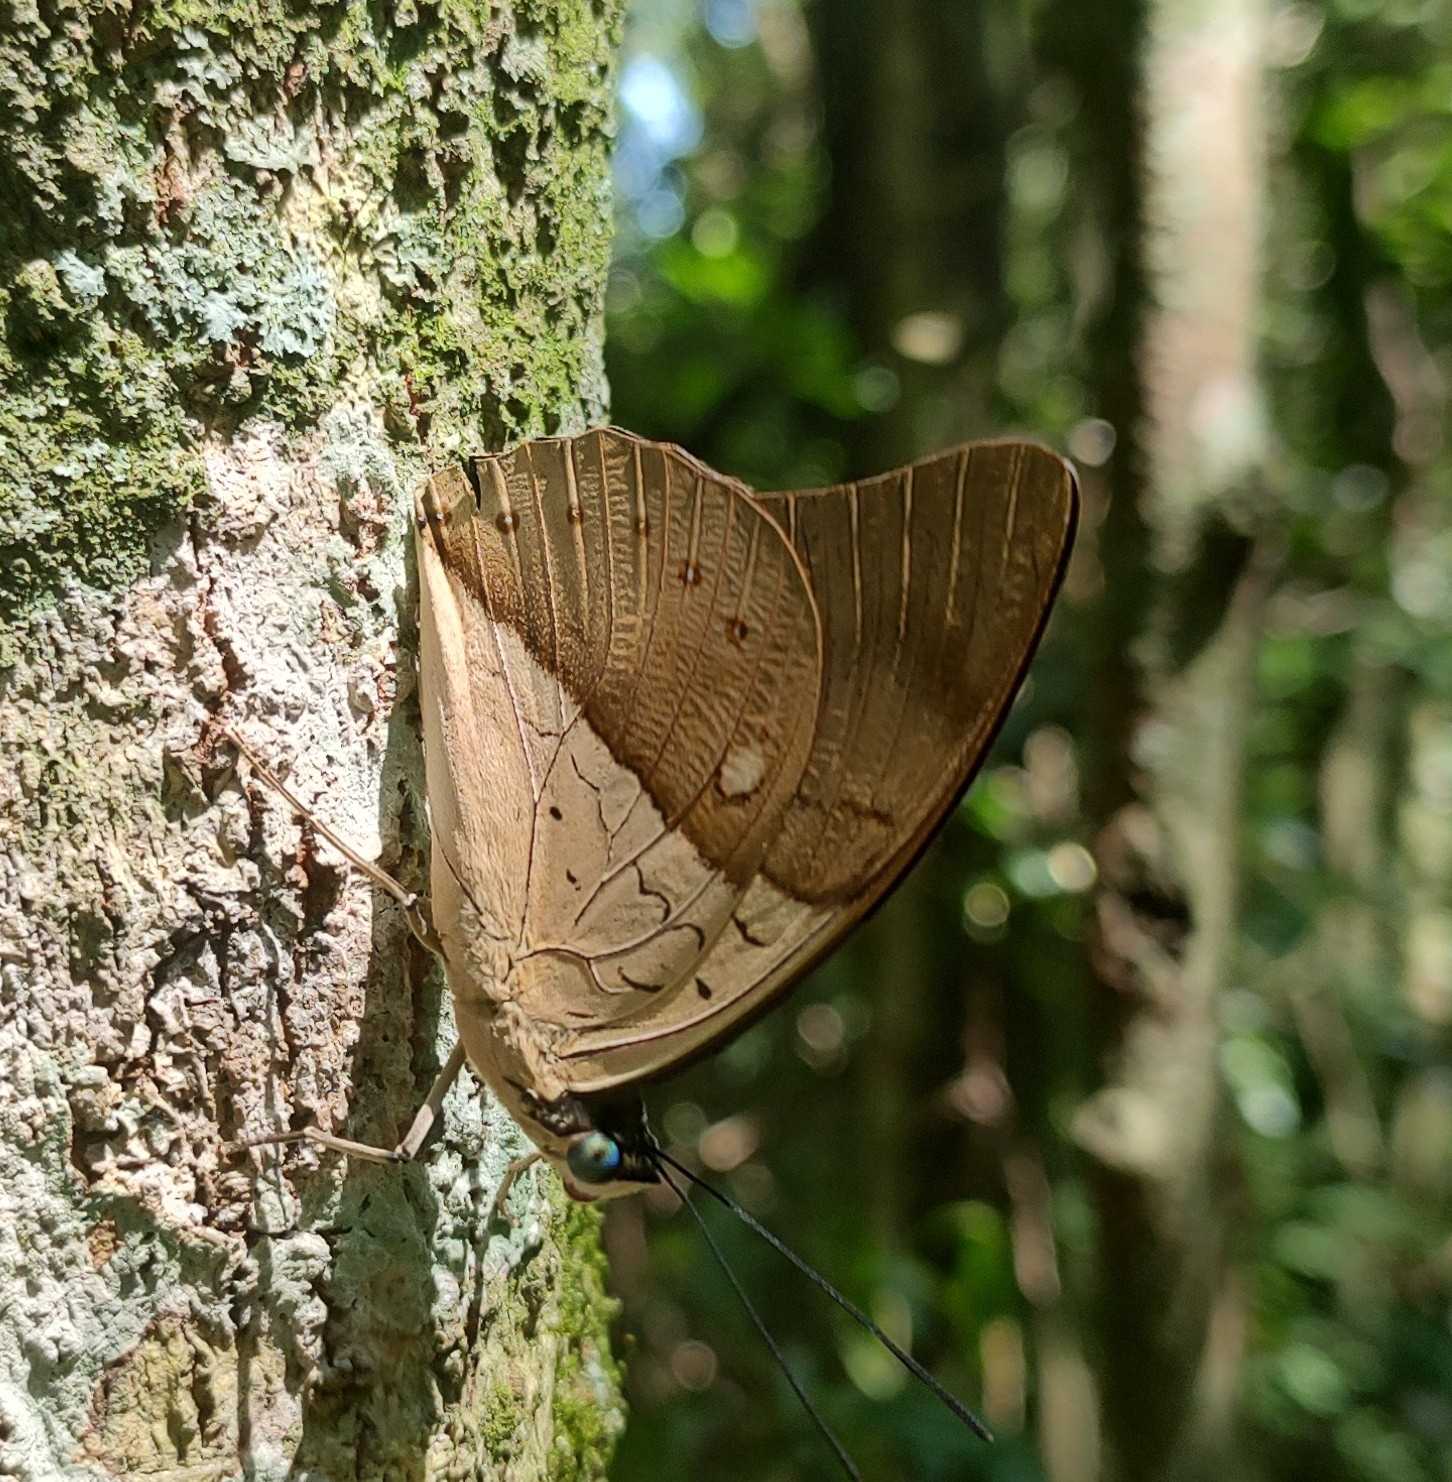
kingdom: Animalia
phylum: Arthropoda
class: Insecta
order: Lepidoptera
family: Nymphalidae
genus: Prepona
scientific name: Prepona meander
